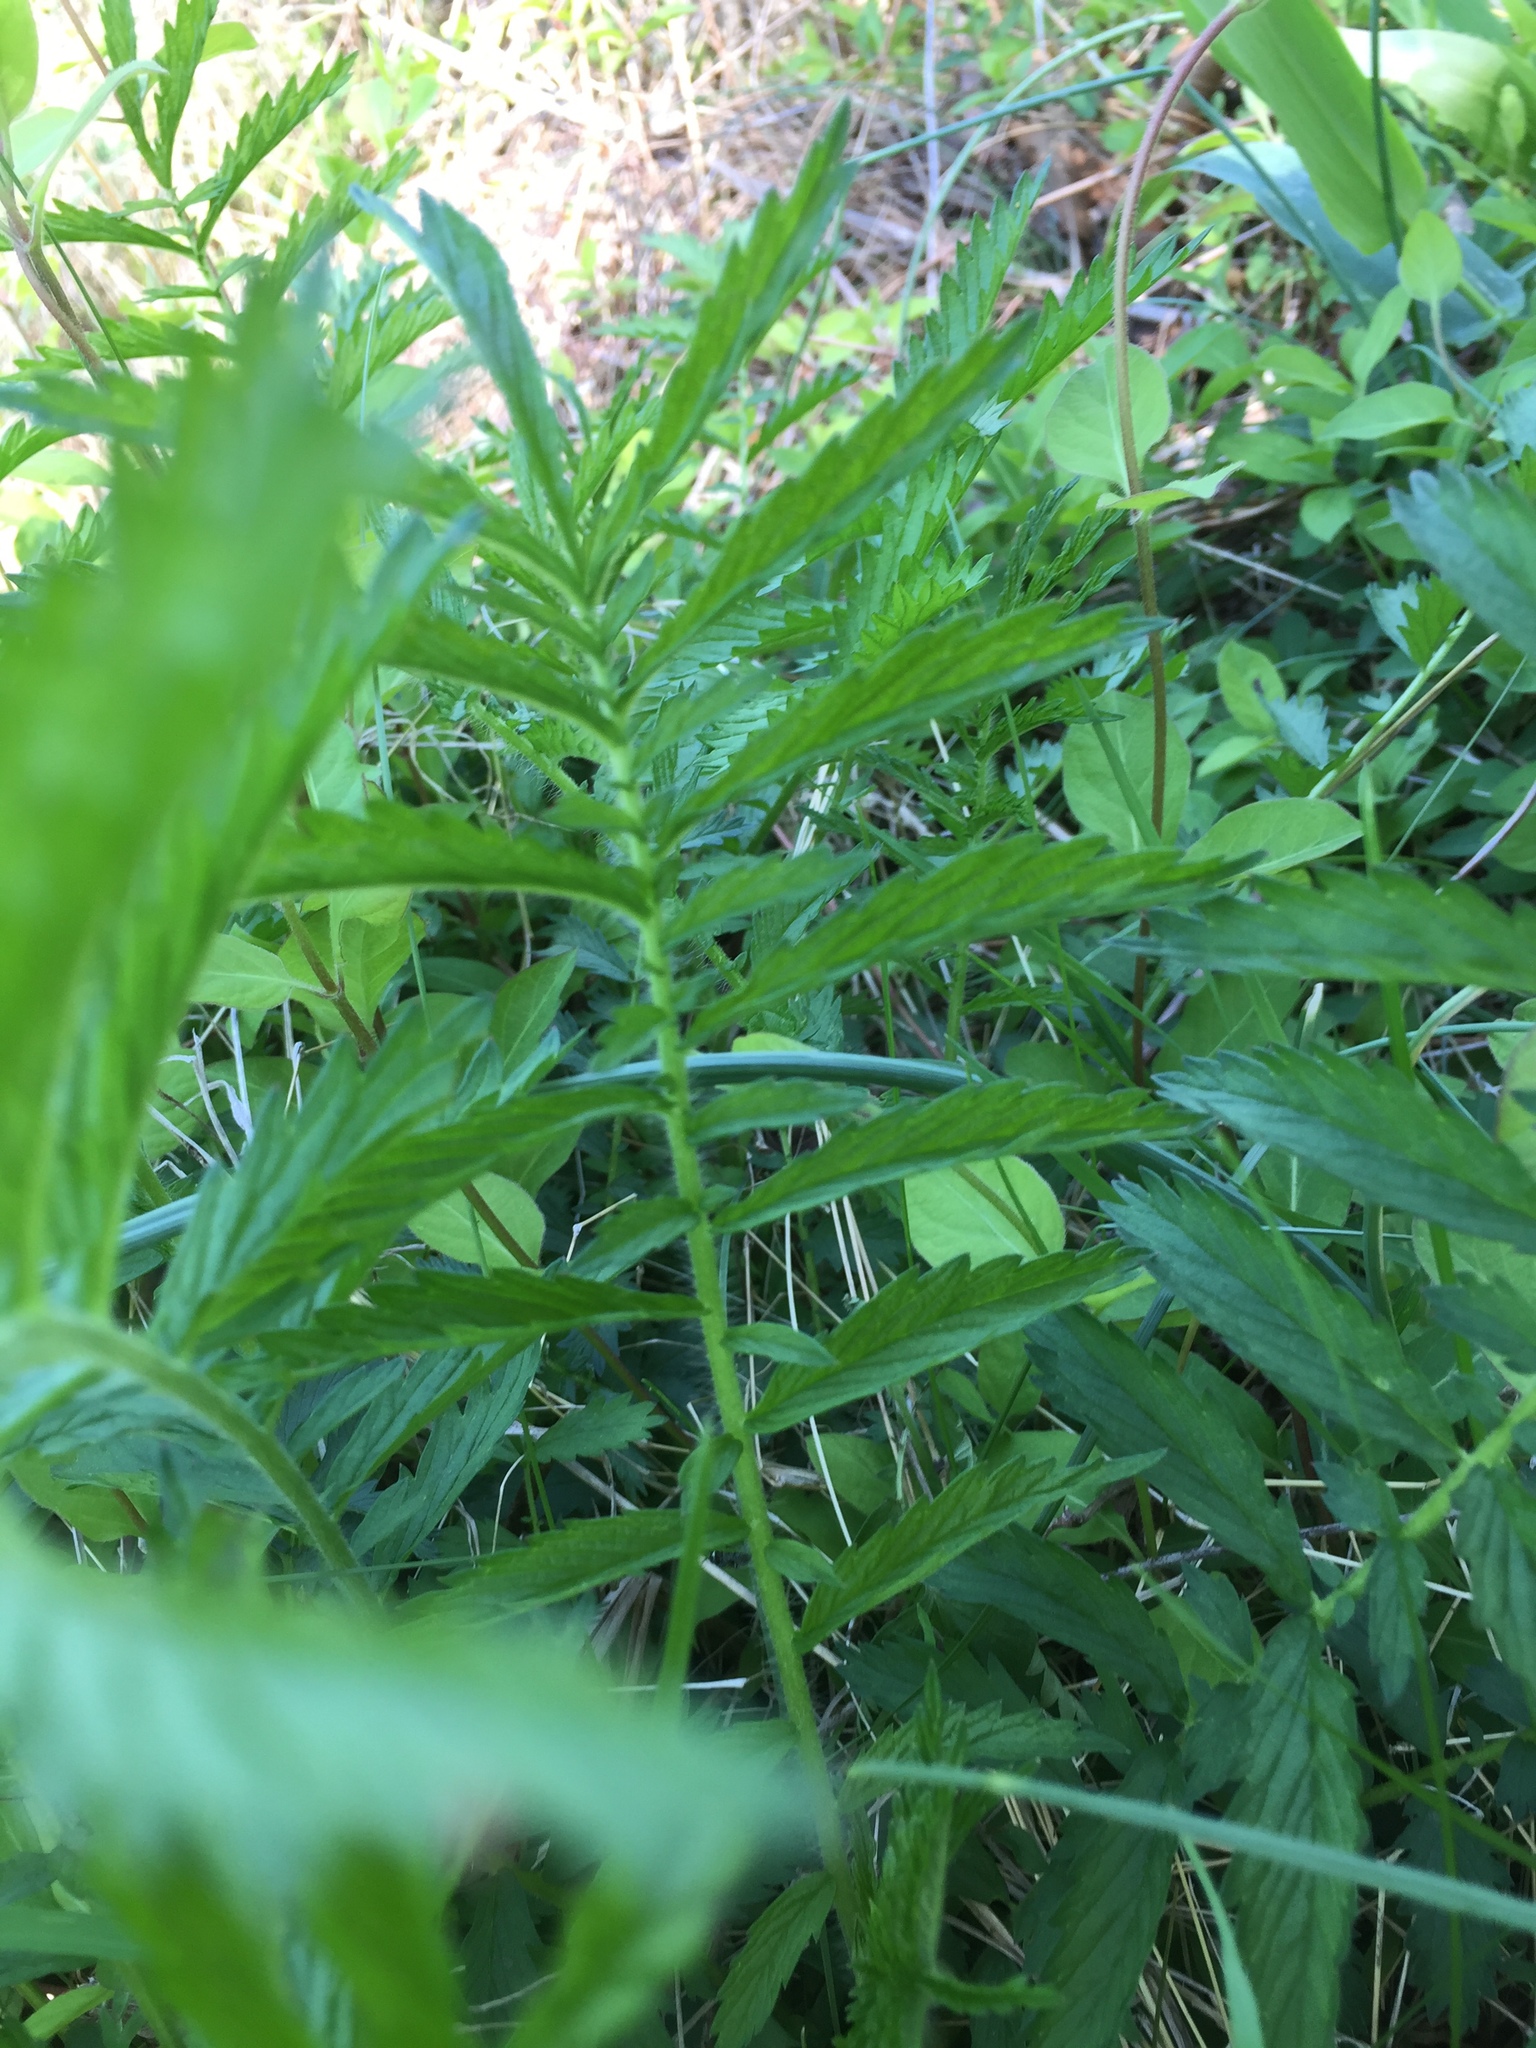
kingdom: Plantae
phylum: Tracheophyta
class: Magnoliopsida
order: Rosales
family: Rosaceae
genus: Agrimonia
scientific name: Agrimonia parviflora
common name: Harvest-lice
